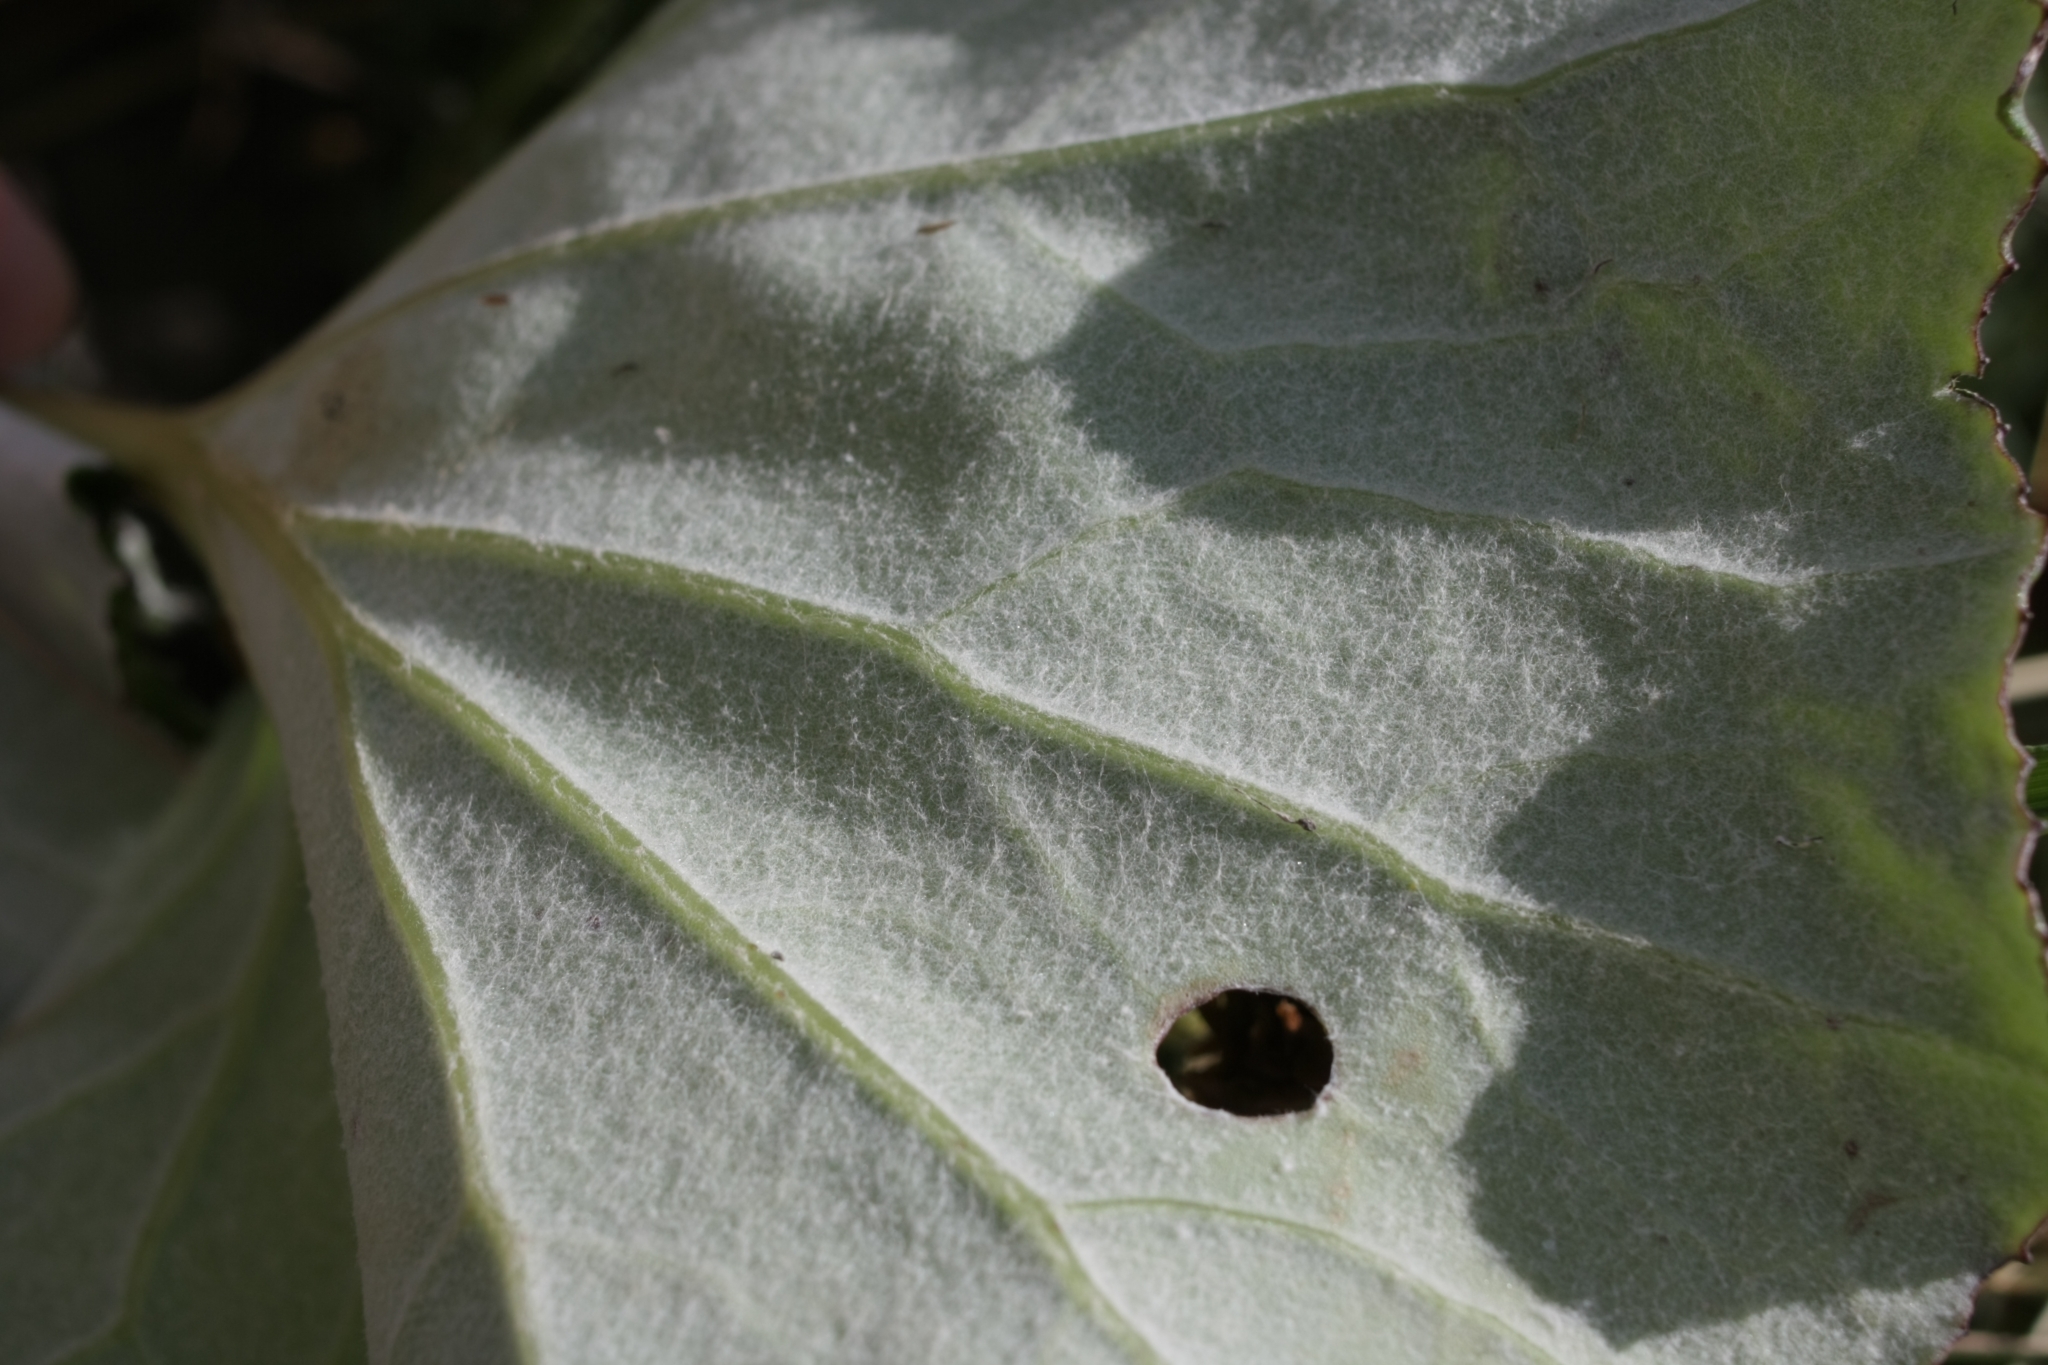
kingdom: Plantae
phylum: Tracheophyta
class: Magnoliopsida
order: Asterales
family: Asteraceae
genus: Tussilago
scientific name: Tussilago farfara
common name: Coltsfoot
